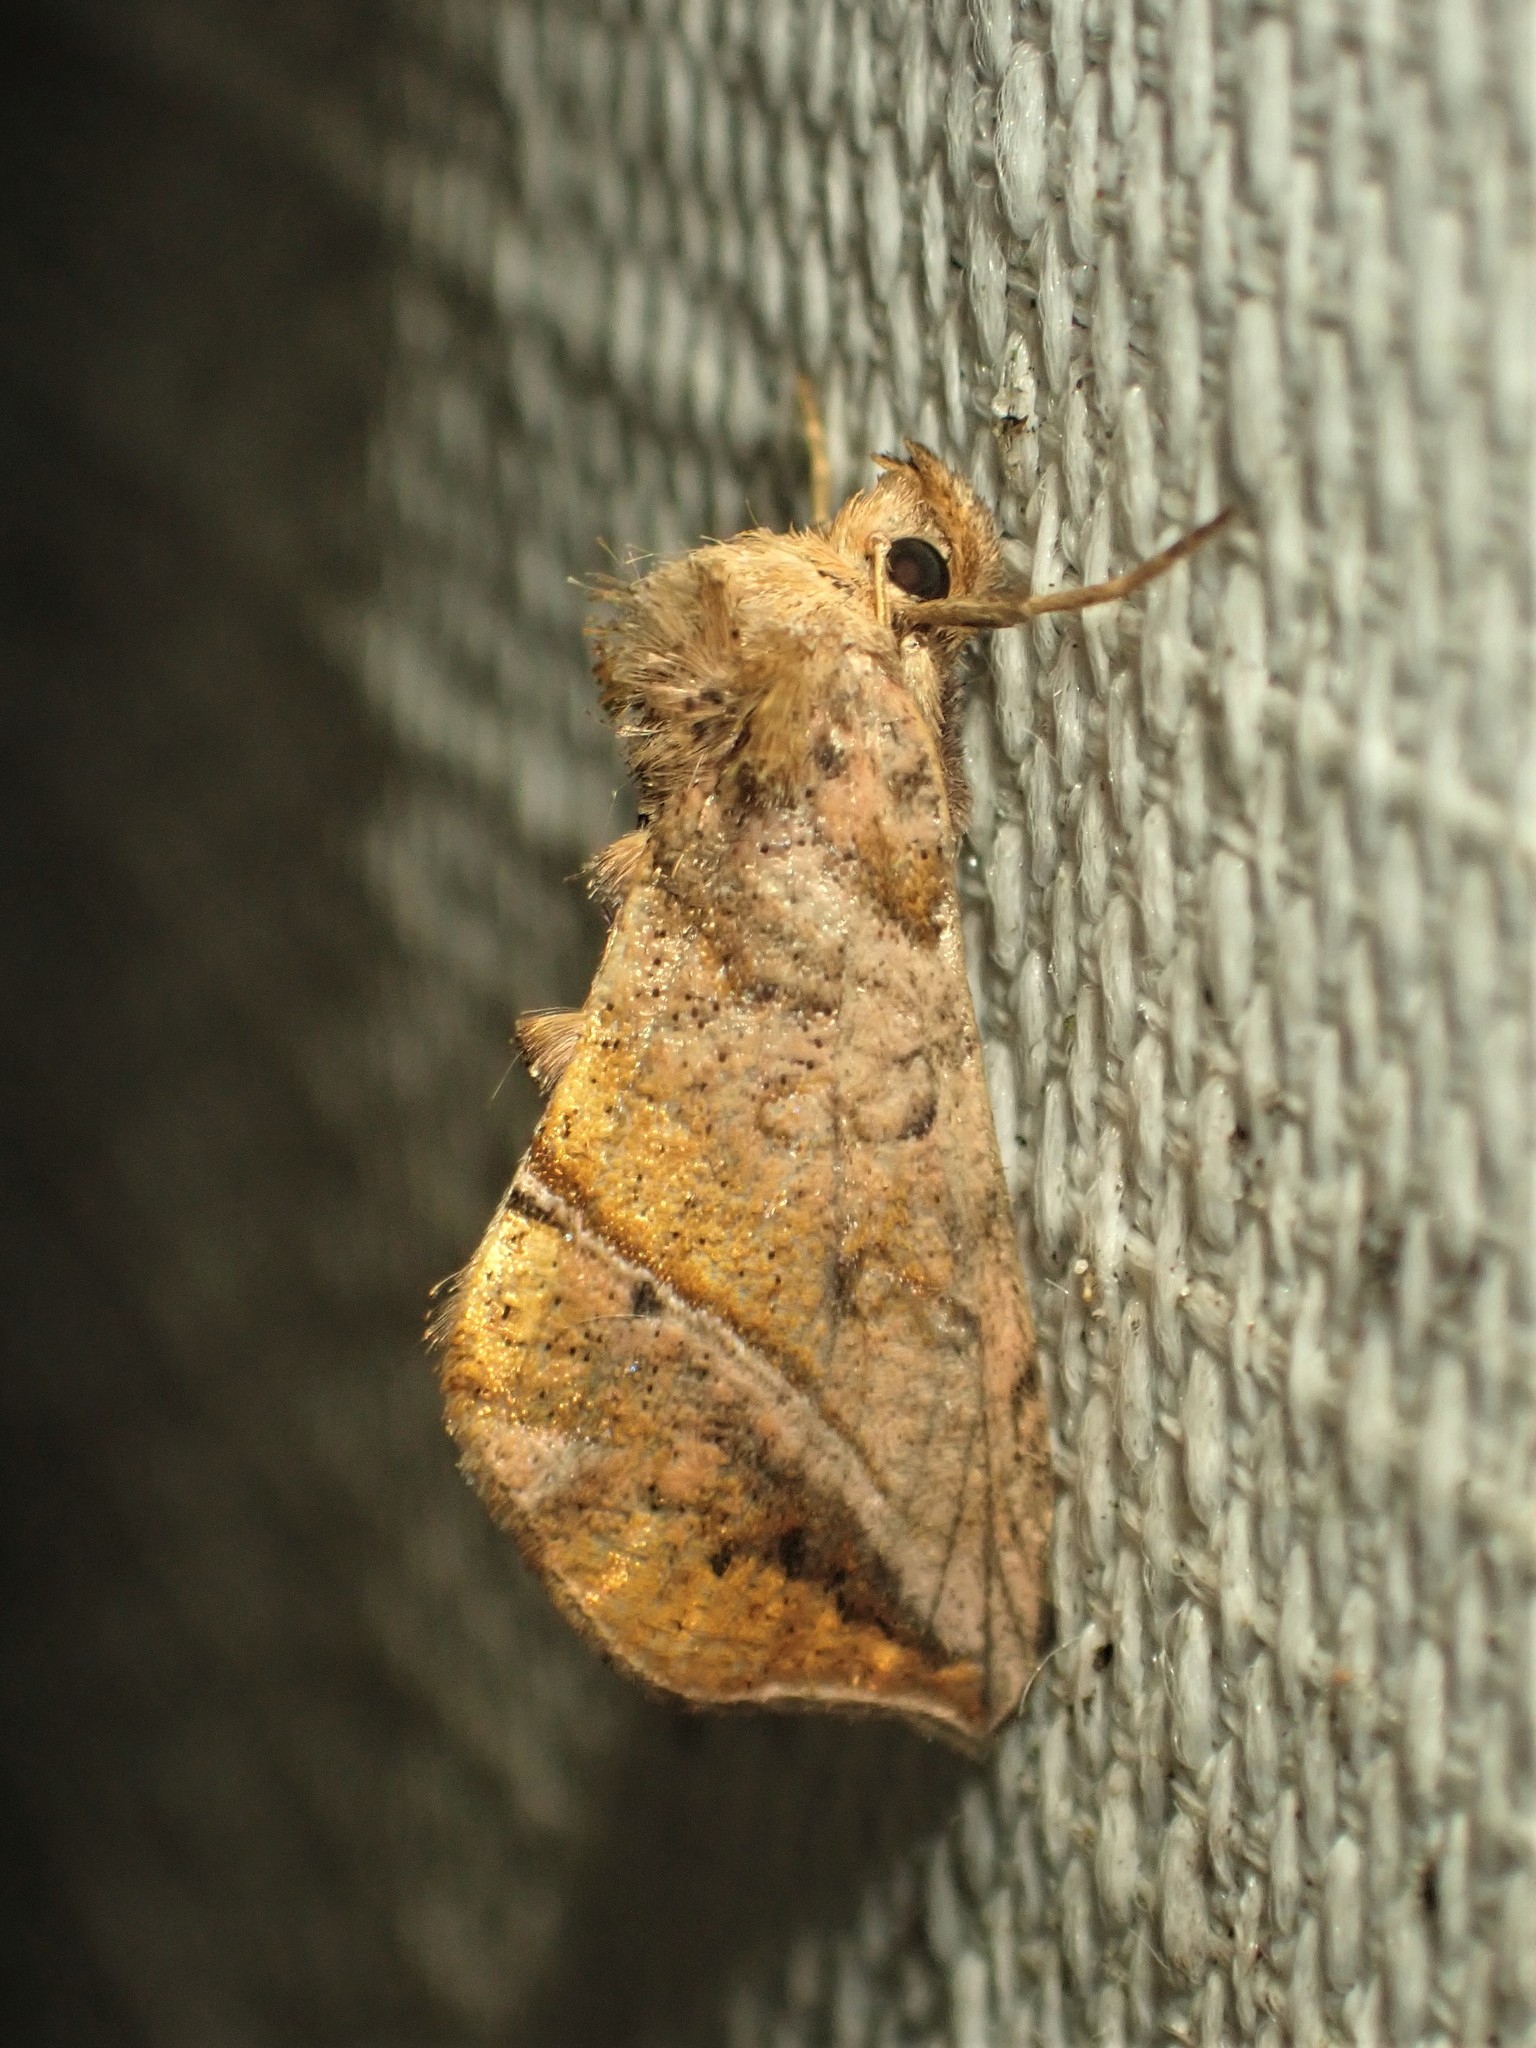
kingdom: Animalia
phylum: Arthropoda
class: Insecta
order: Lepidoptera
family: Noctuidae
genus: Pseudeva
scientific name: Pseudeva purpurigera
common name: Straight-lined looper moth
